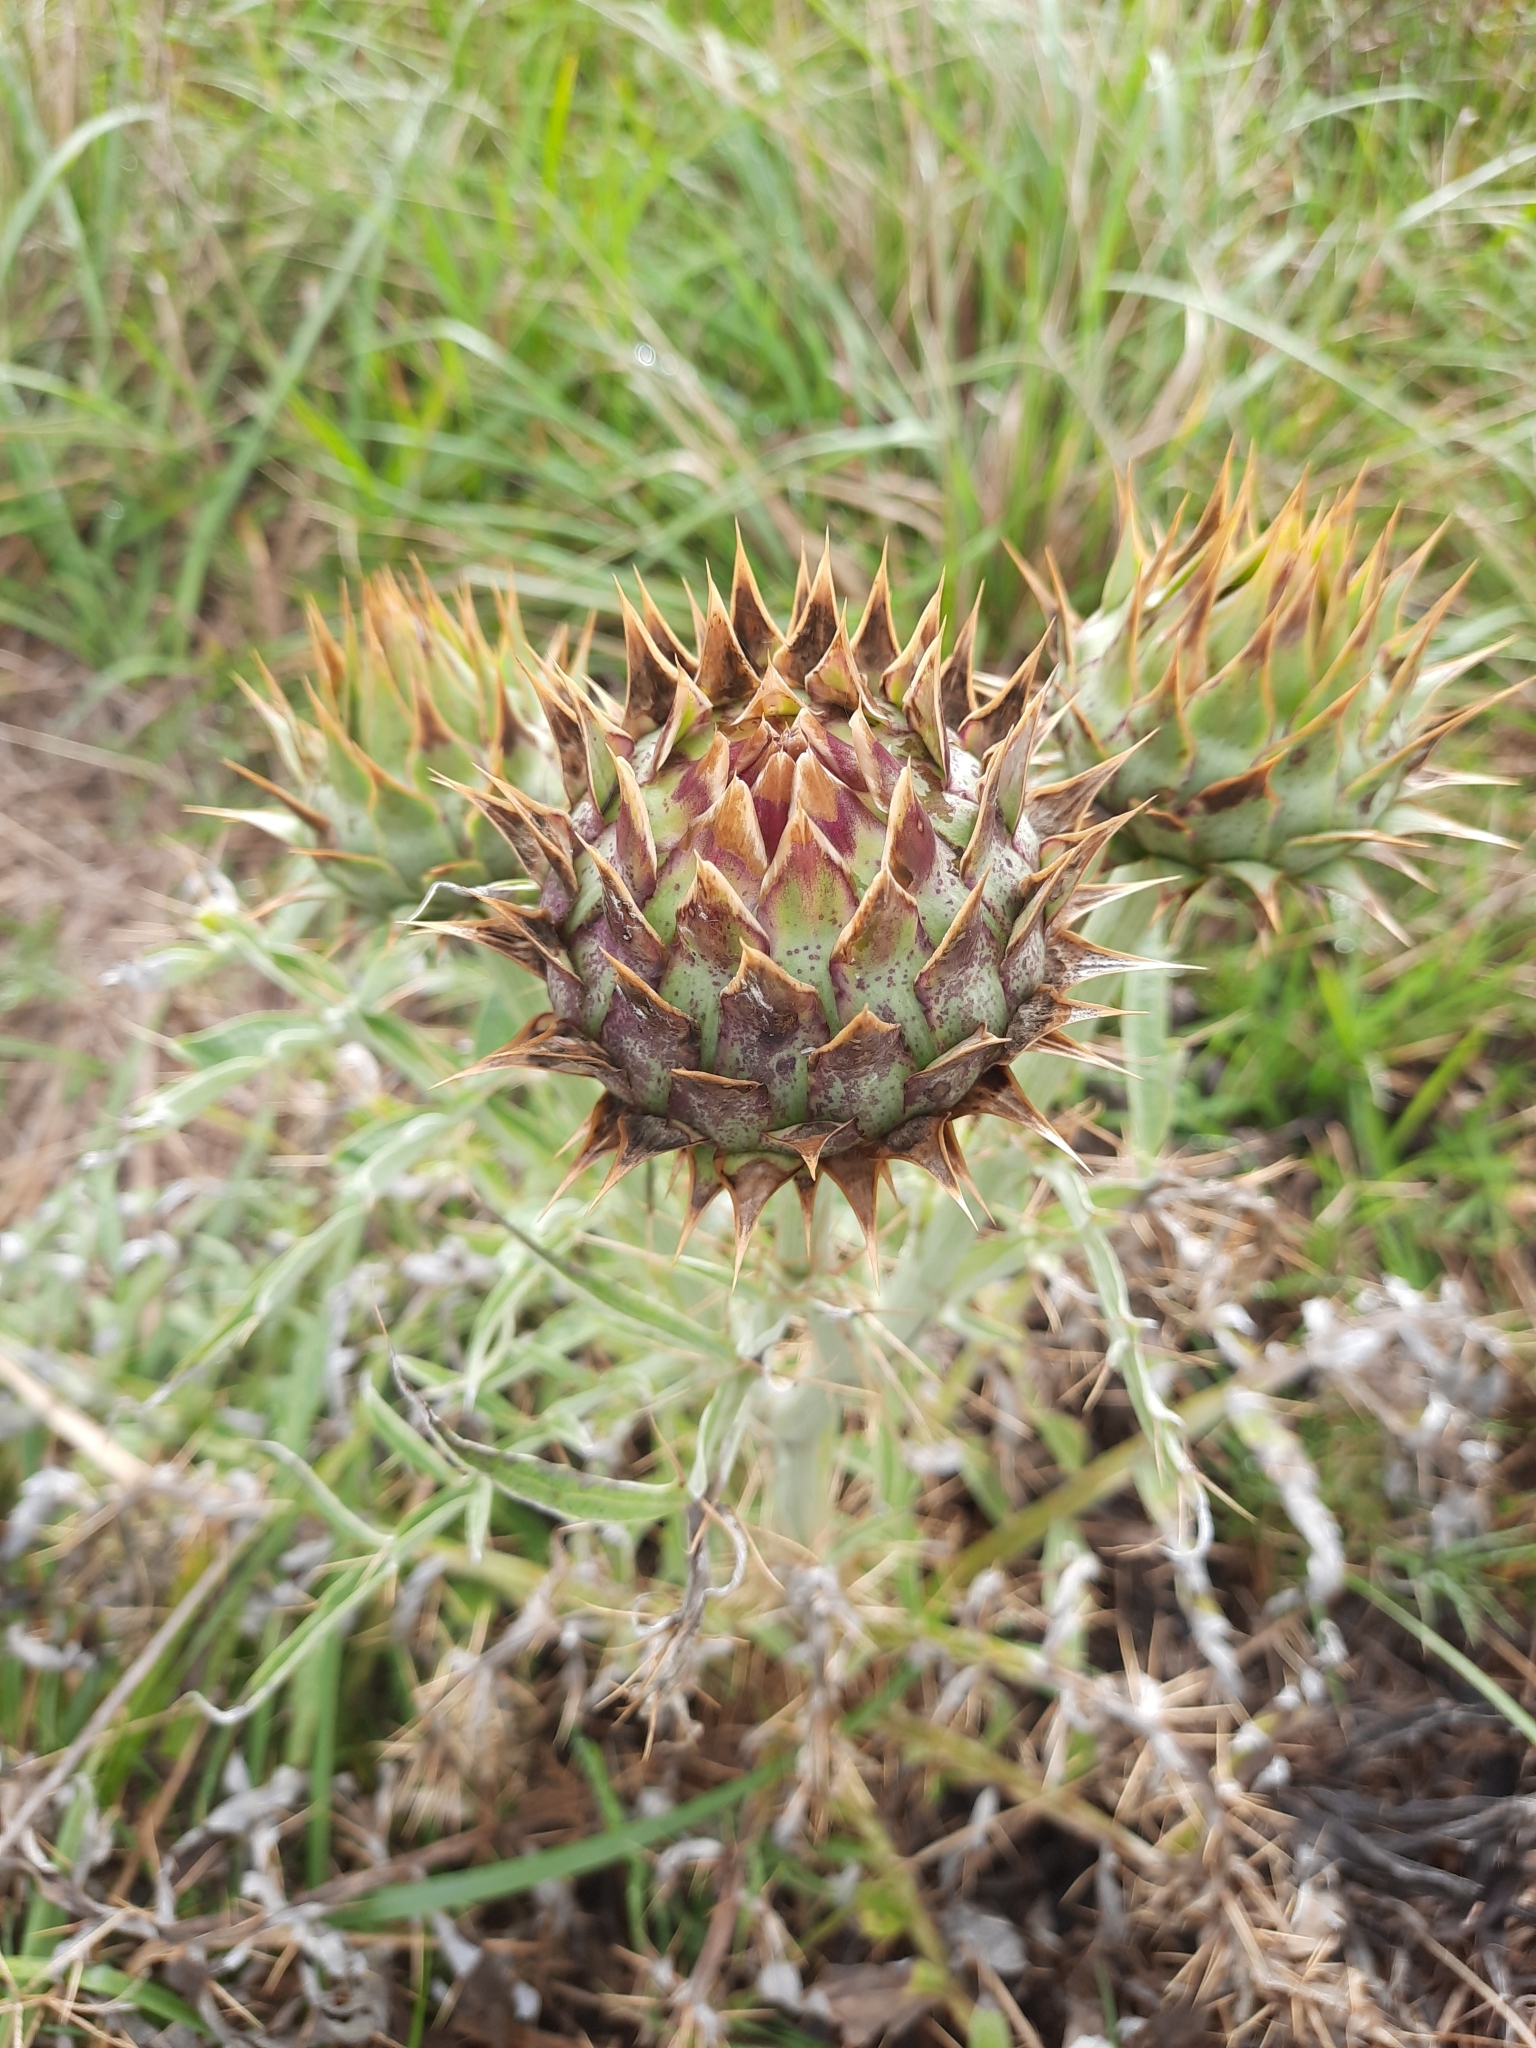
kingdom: Plantae
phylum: Tracheophyta
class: Magnoliopsida
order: Asterales
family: Asteraceae
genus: Cynara
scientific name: Cynara cardunculus
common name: Globe artichoke
